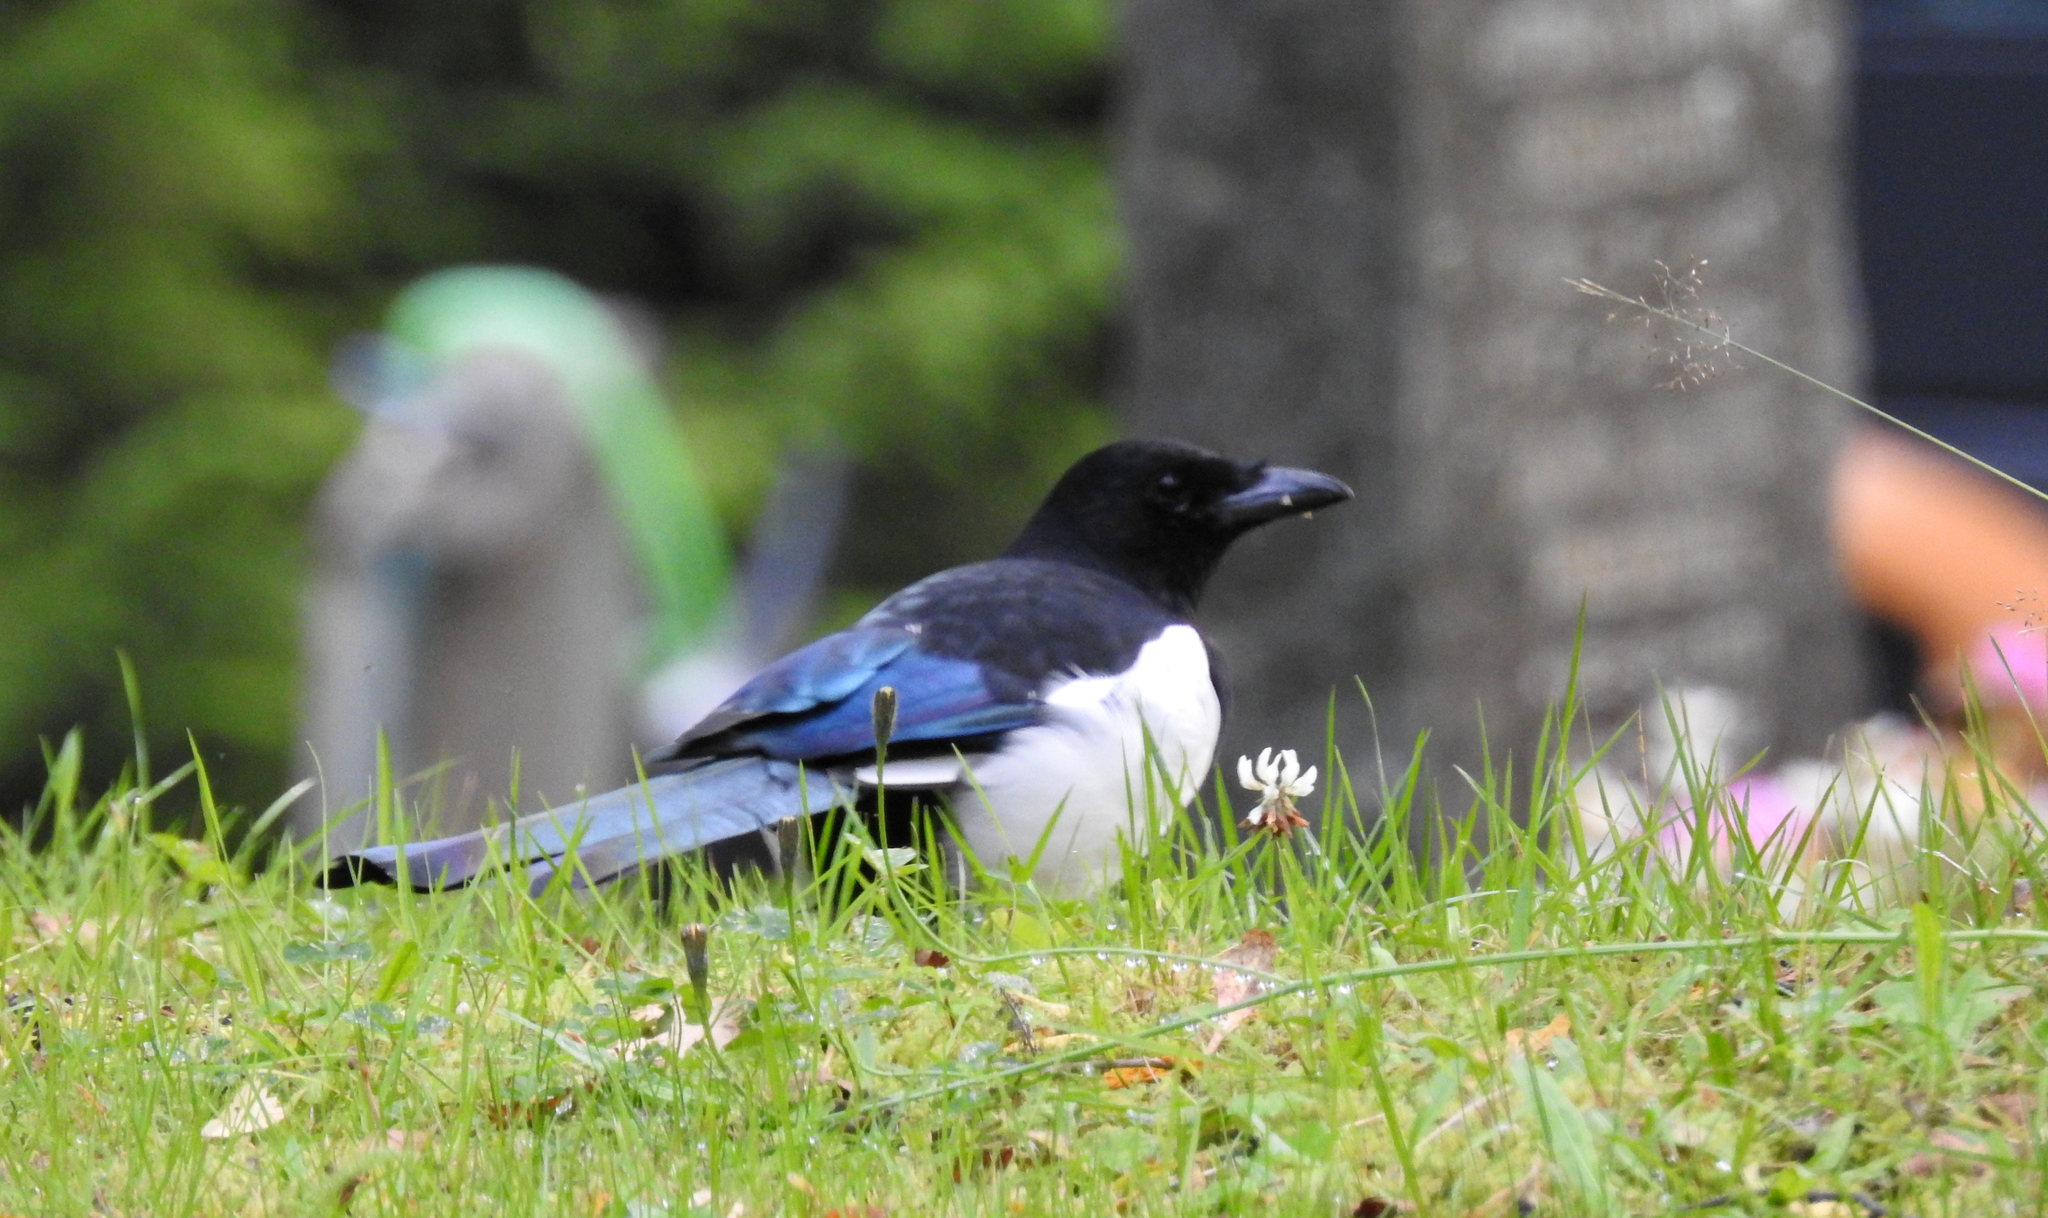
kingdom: Animalia
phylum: Chordata
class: Aves
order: Passeriformes
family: Corvidae
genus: Pica
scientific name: Pica pica
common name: Eurasian magpie
